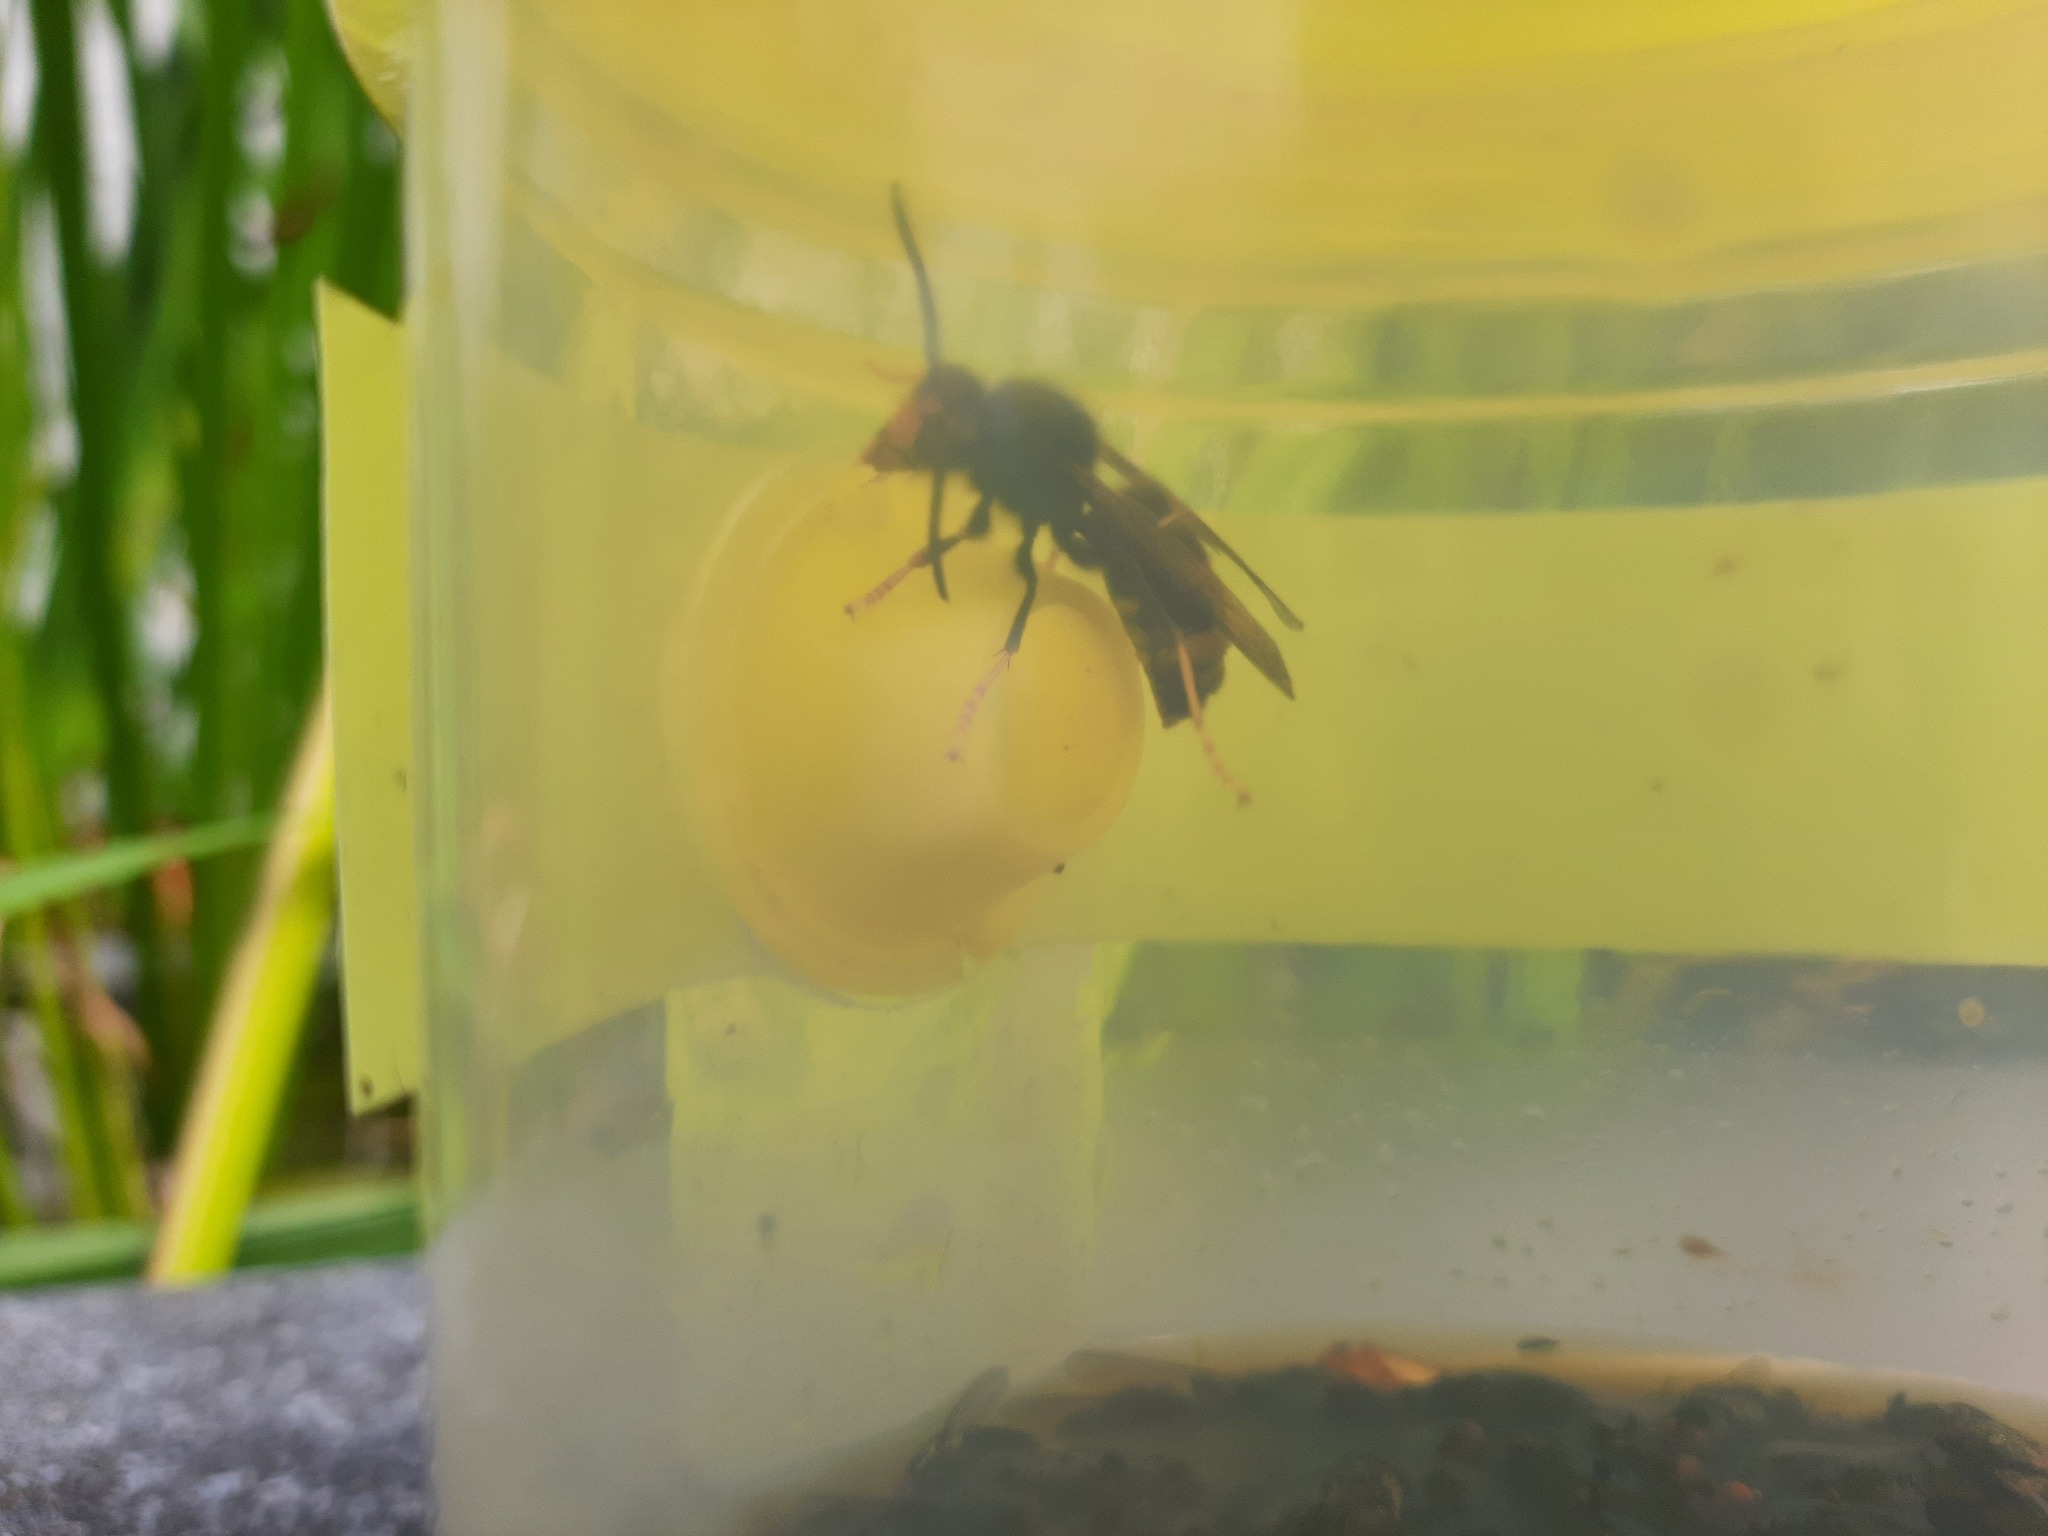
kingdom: Animalia
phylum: Arthropoda
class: Insecta
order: Hymenoptera
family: Vespidae
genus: Vespa
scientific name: Vespa velutina
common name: Asian hornet
